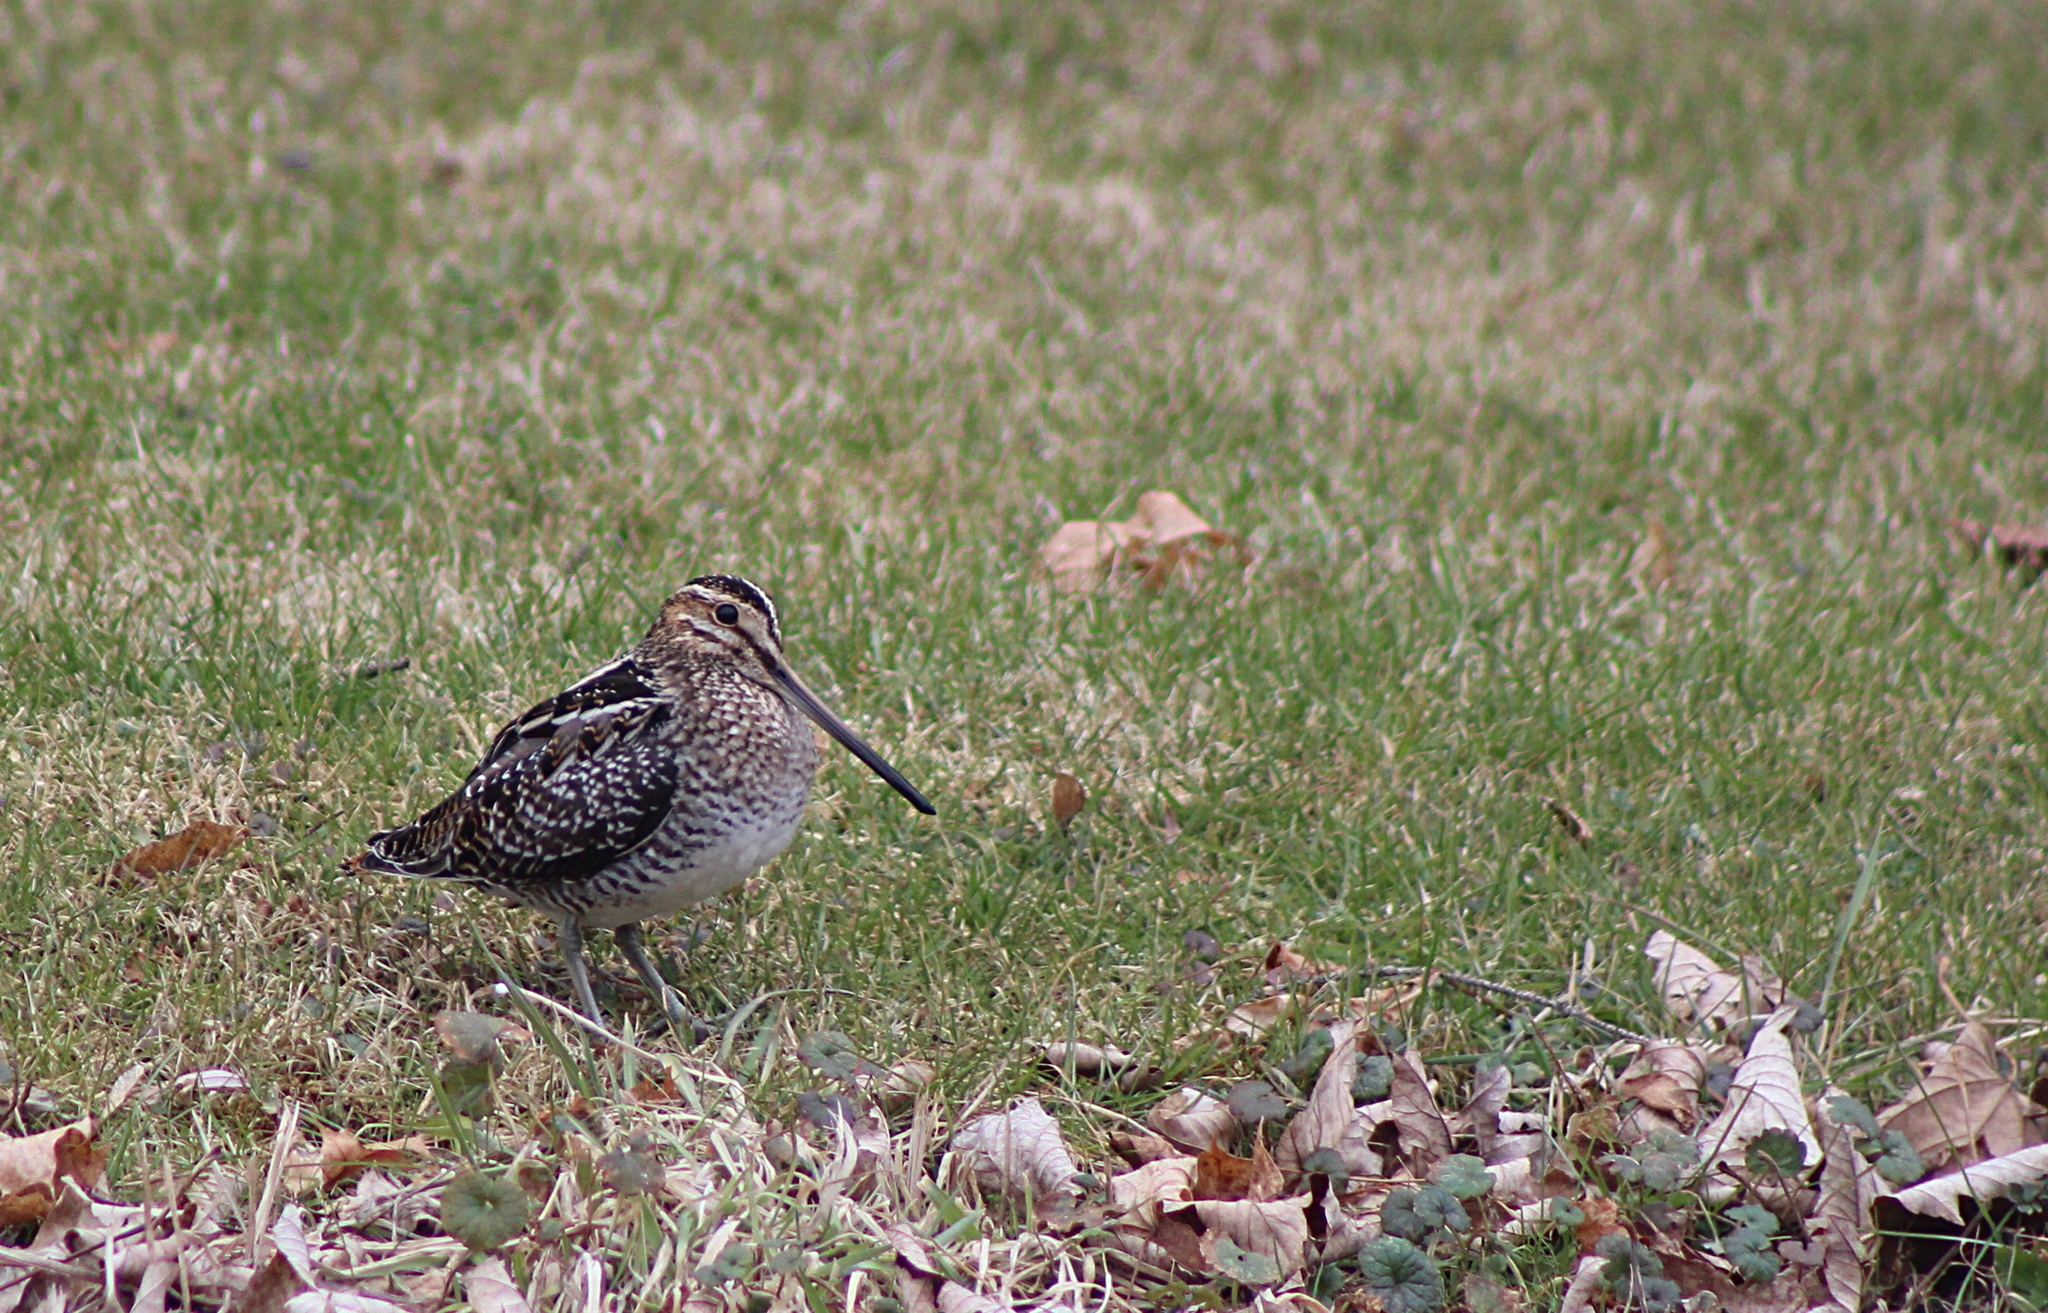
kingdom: Animalia
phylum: Chordata
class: Aves
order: Charadriiformes
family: Scolopacidae
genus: Gallinago
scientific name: Gallinago delicata
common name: Wilson's snipe
